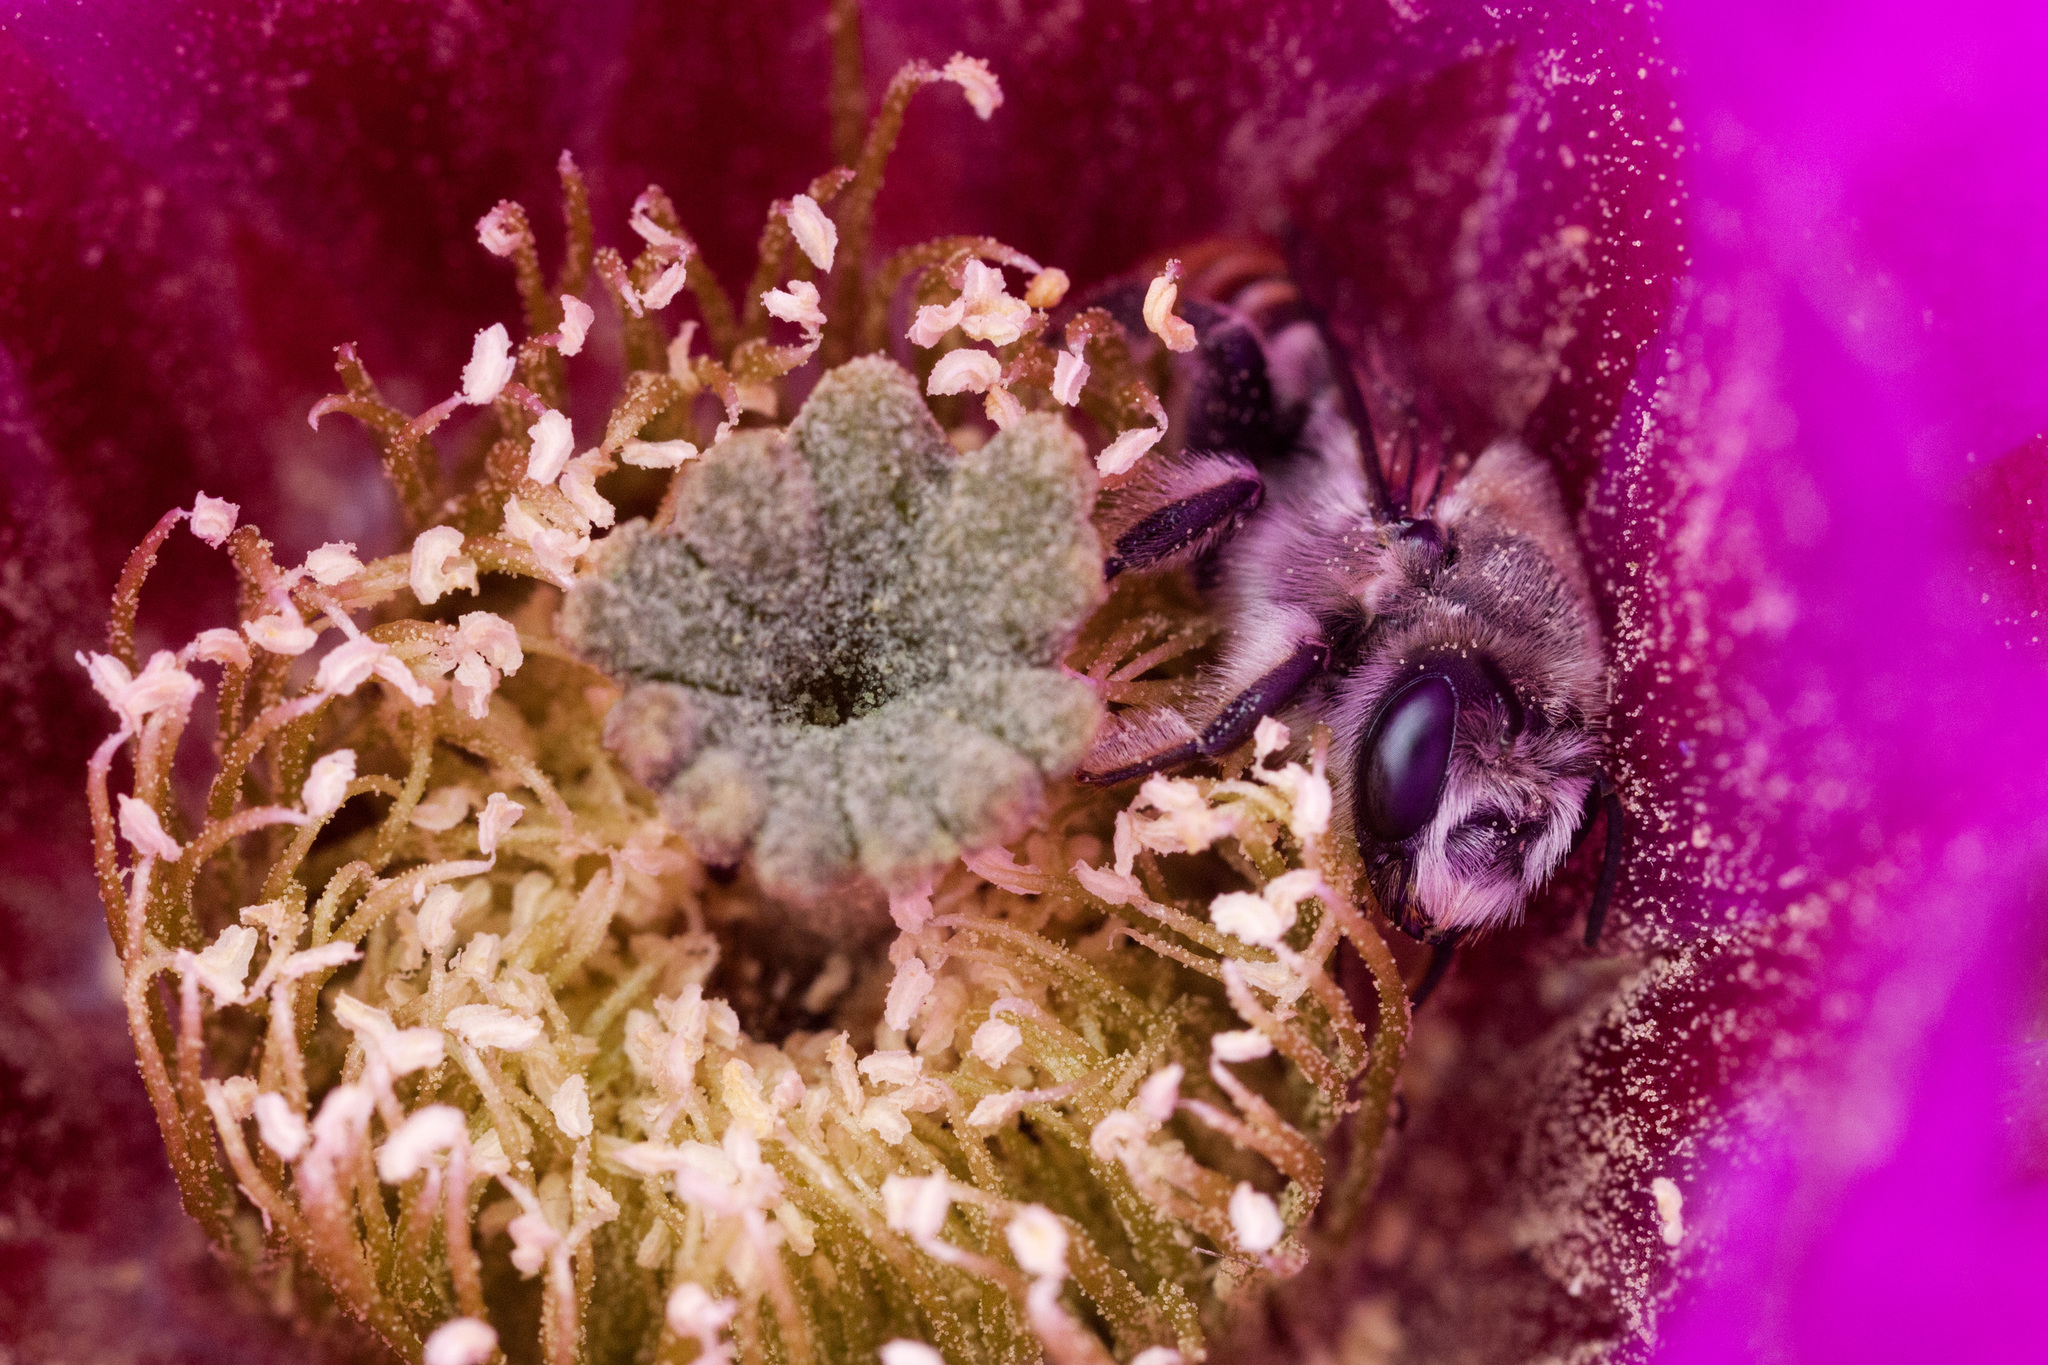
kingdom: Animalia
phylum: Arthropoda
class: Insecta
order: Hymenoptera
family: Megachilidae
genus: Lithurgopsis
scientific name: Lithurgopsis apicalis
